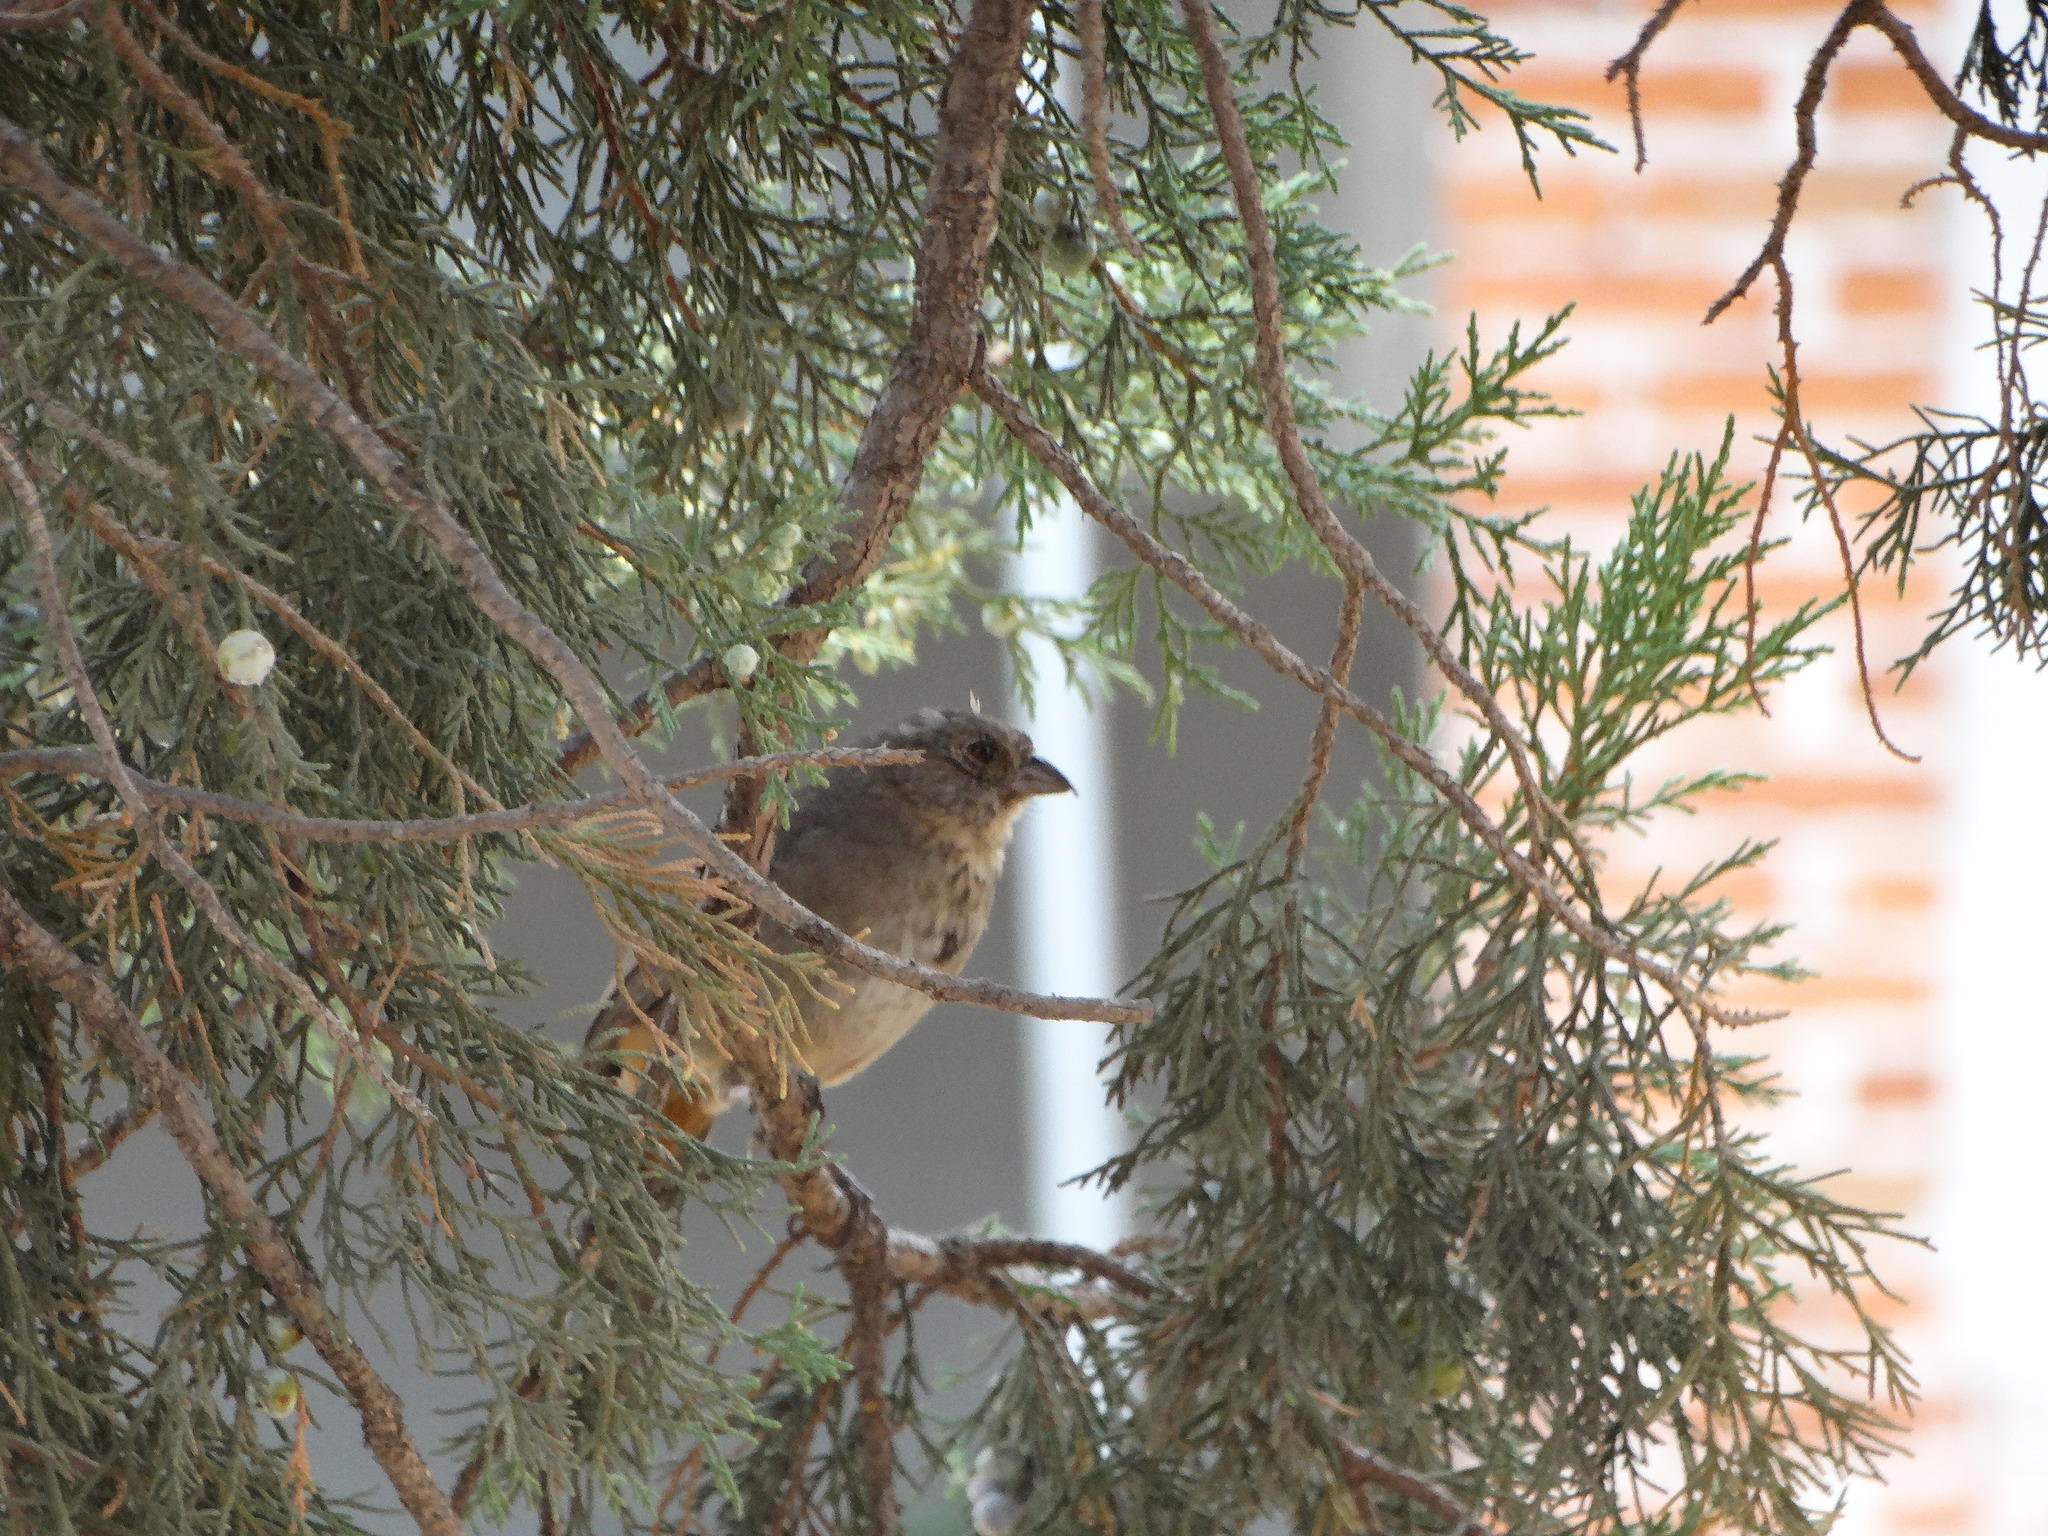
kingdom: Animalia
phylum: Chordata
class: Aves
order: Passeriformes
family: Passerellidae
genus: Melozone
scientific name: Melozone fusca
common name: Canyon towhee
